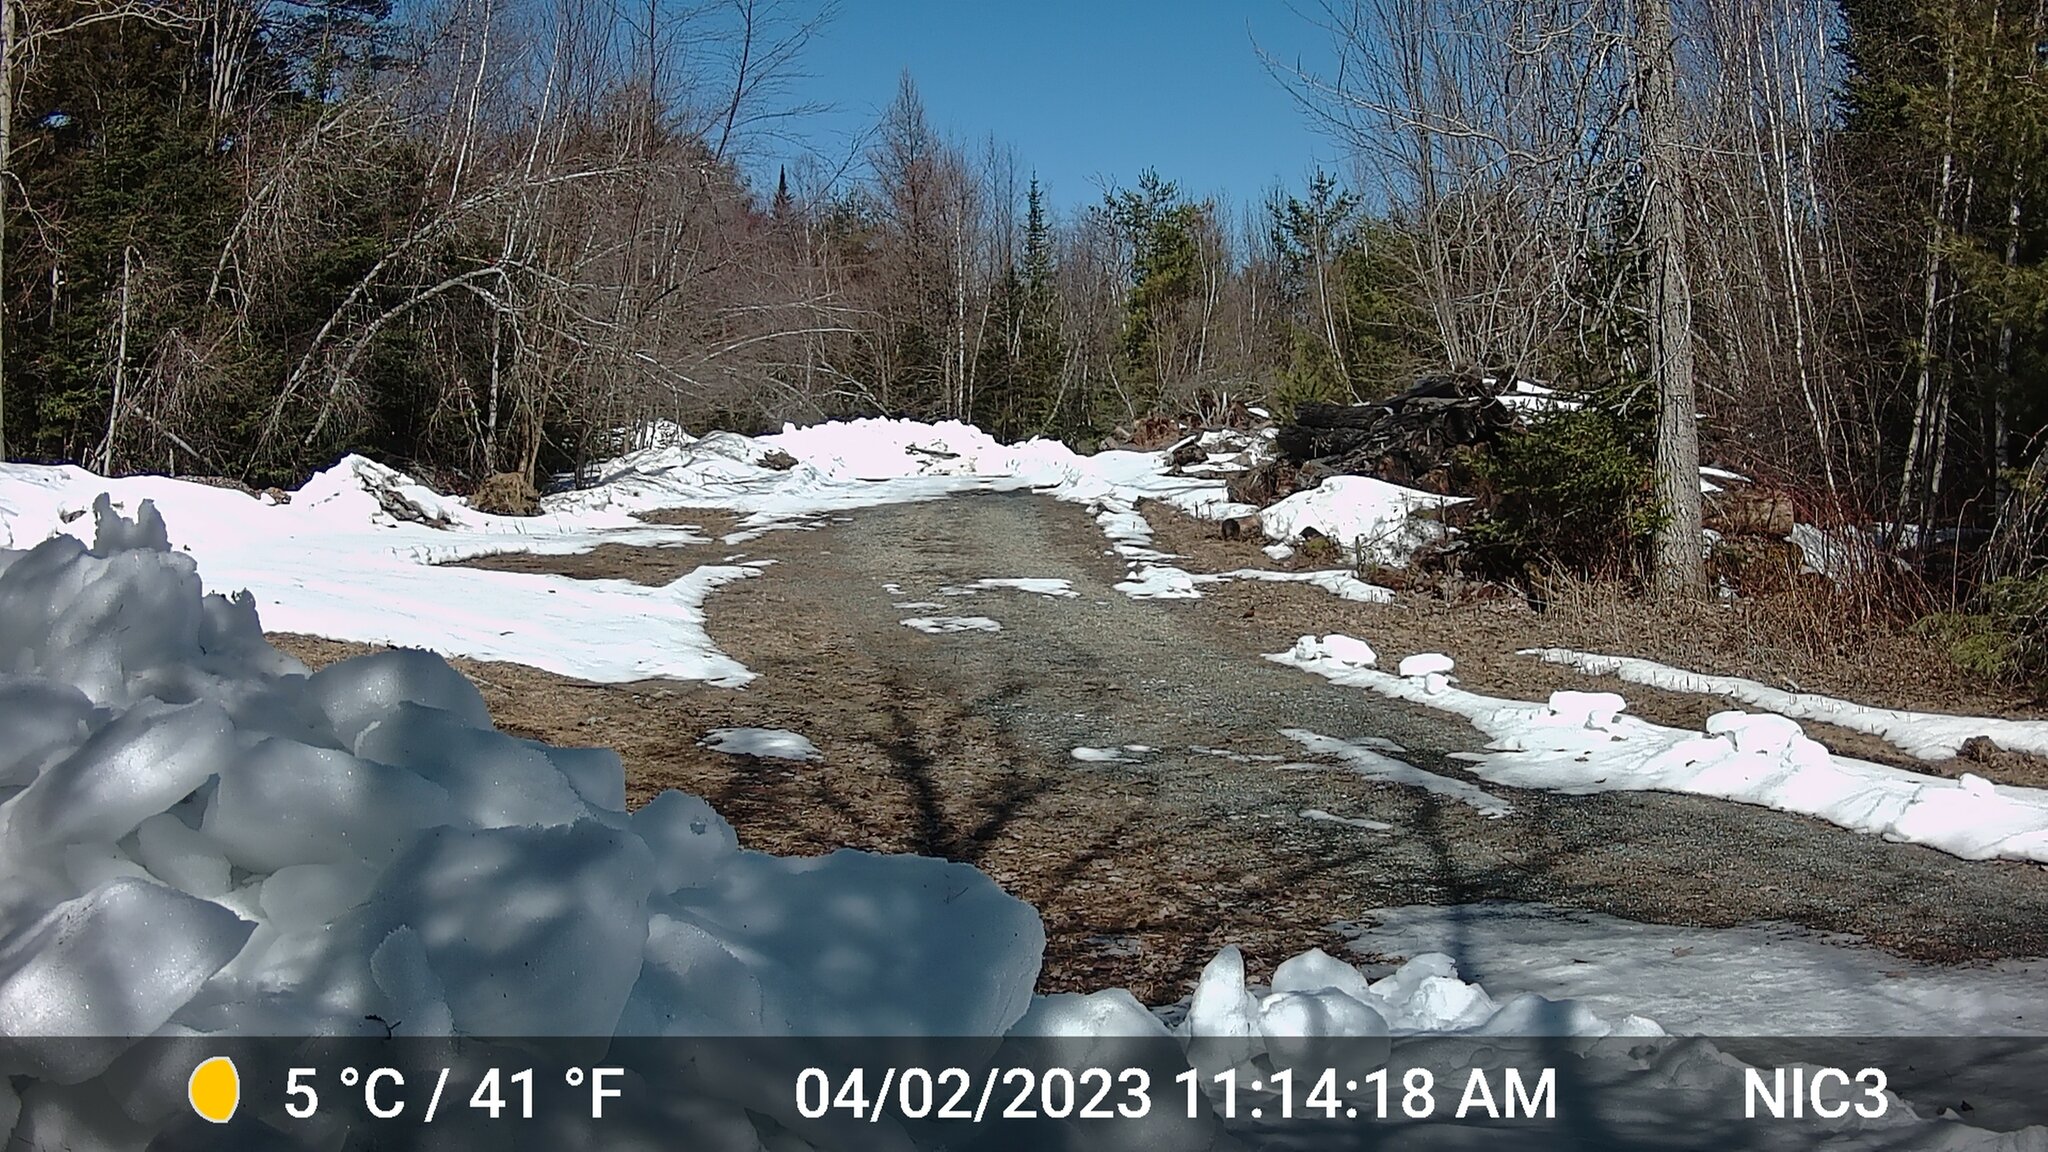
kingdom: Animalia
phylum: Chordata
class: Aves
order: Passeriformes
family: Turdidae
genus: Turdus
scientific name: Turdus migratorius
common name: American robin
